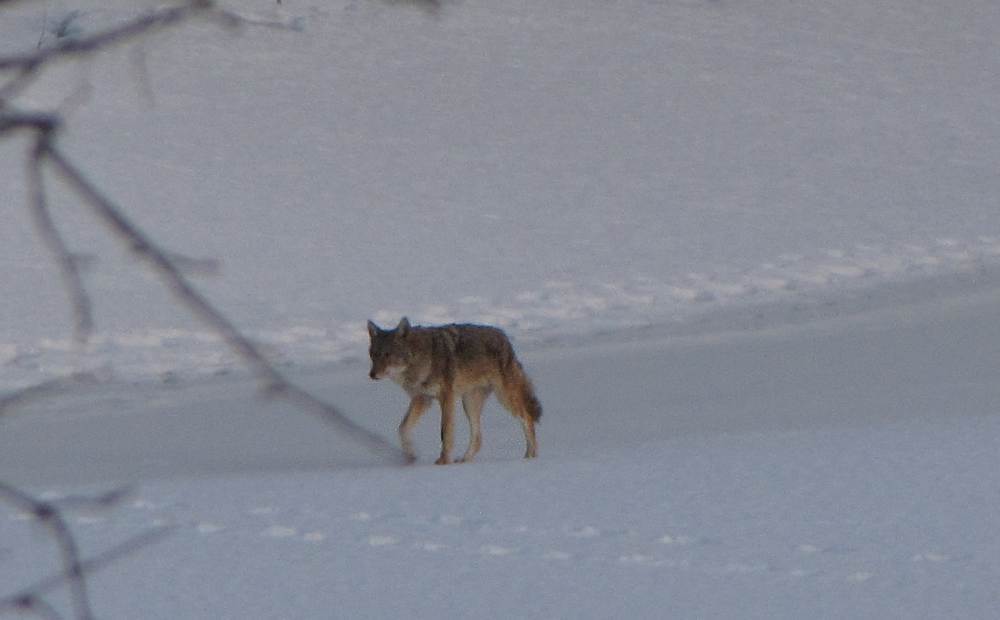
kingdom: Animalia
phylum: Chordata
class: Mammalia
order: Carnivora
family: Canidae
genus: Canis
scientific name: Canis latrans
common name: Coyote
